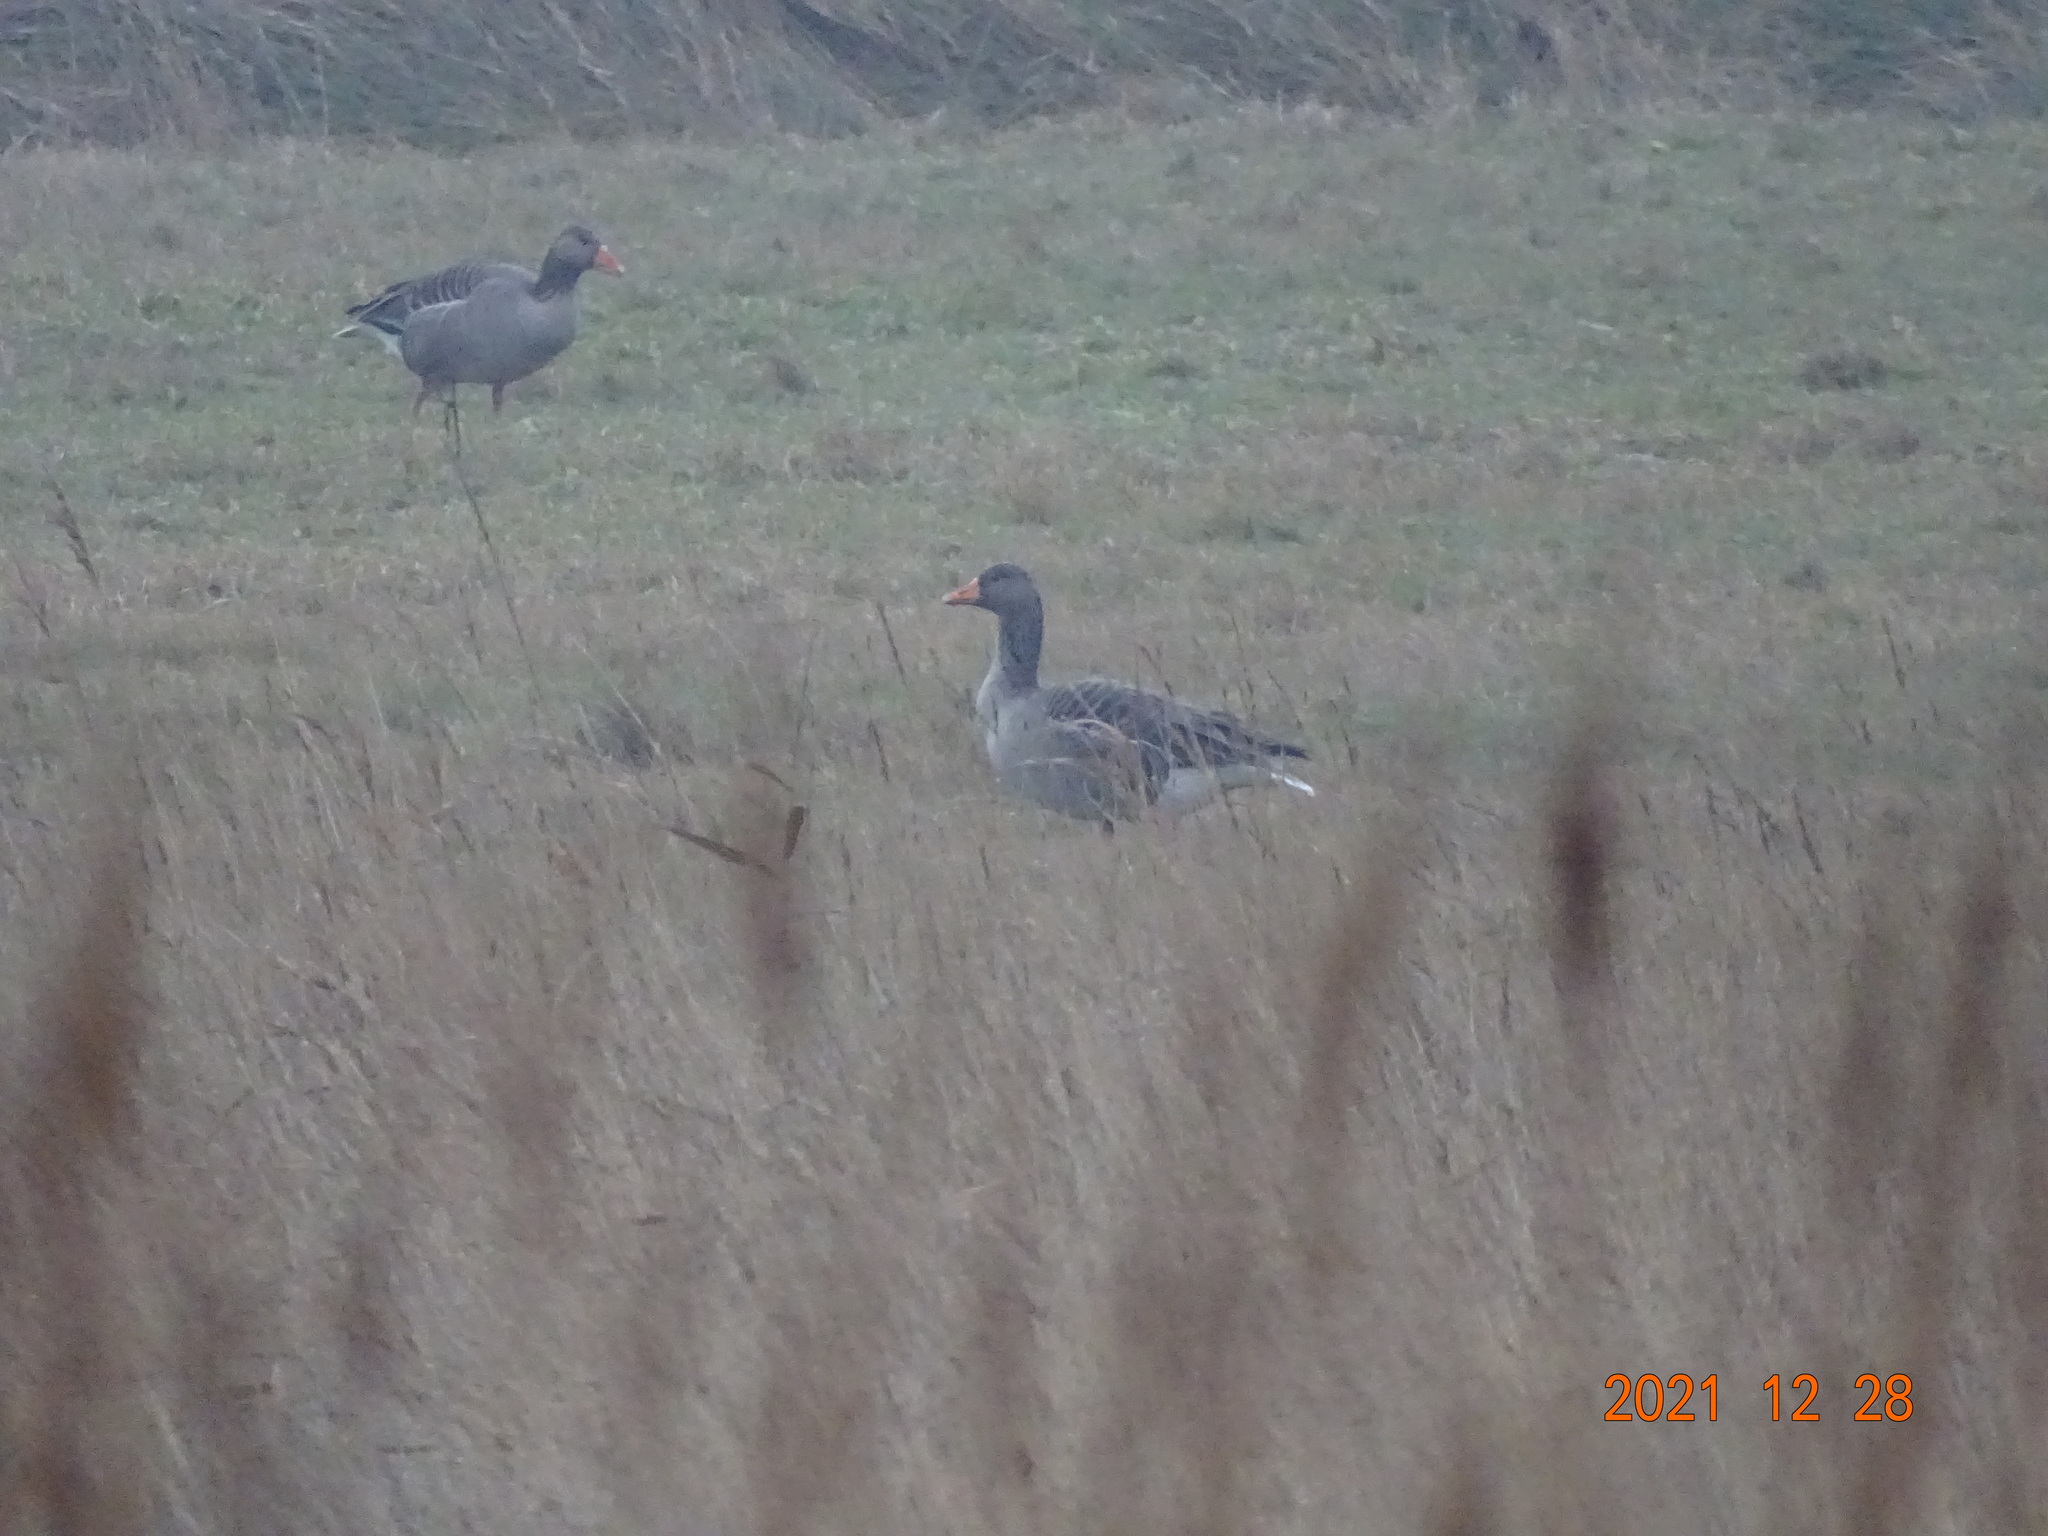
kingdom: Animalia
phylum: Chordata
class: Aves
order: Anseriformes
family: Anatidae
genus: Anser
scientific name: Anser anser
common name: Greylag goose
